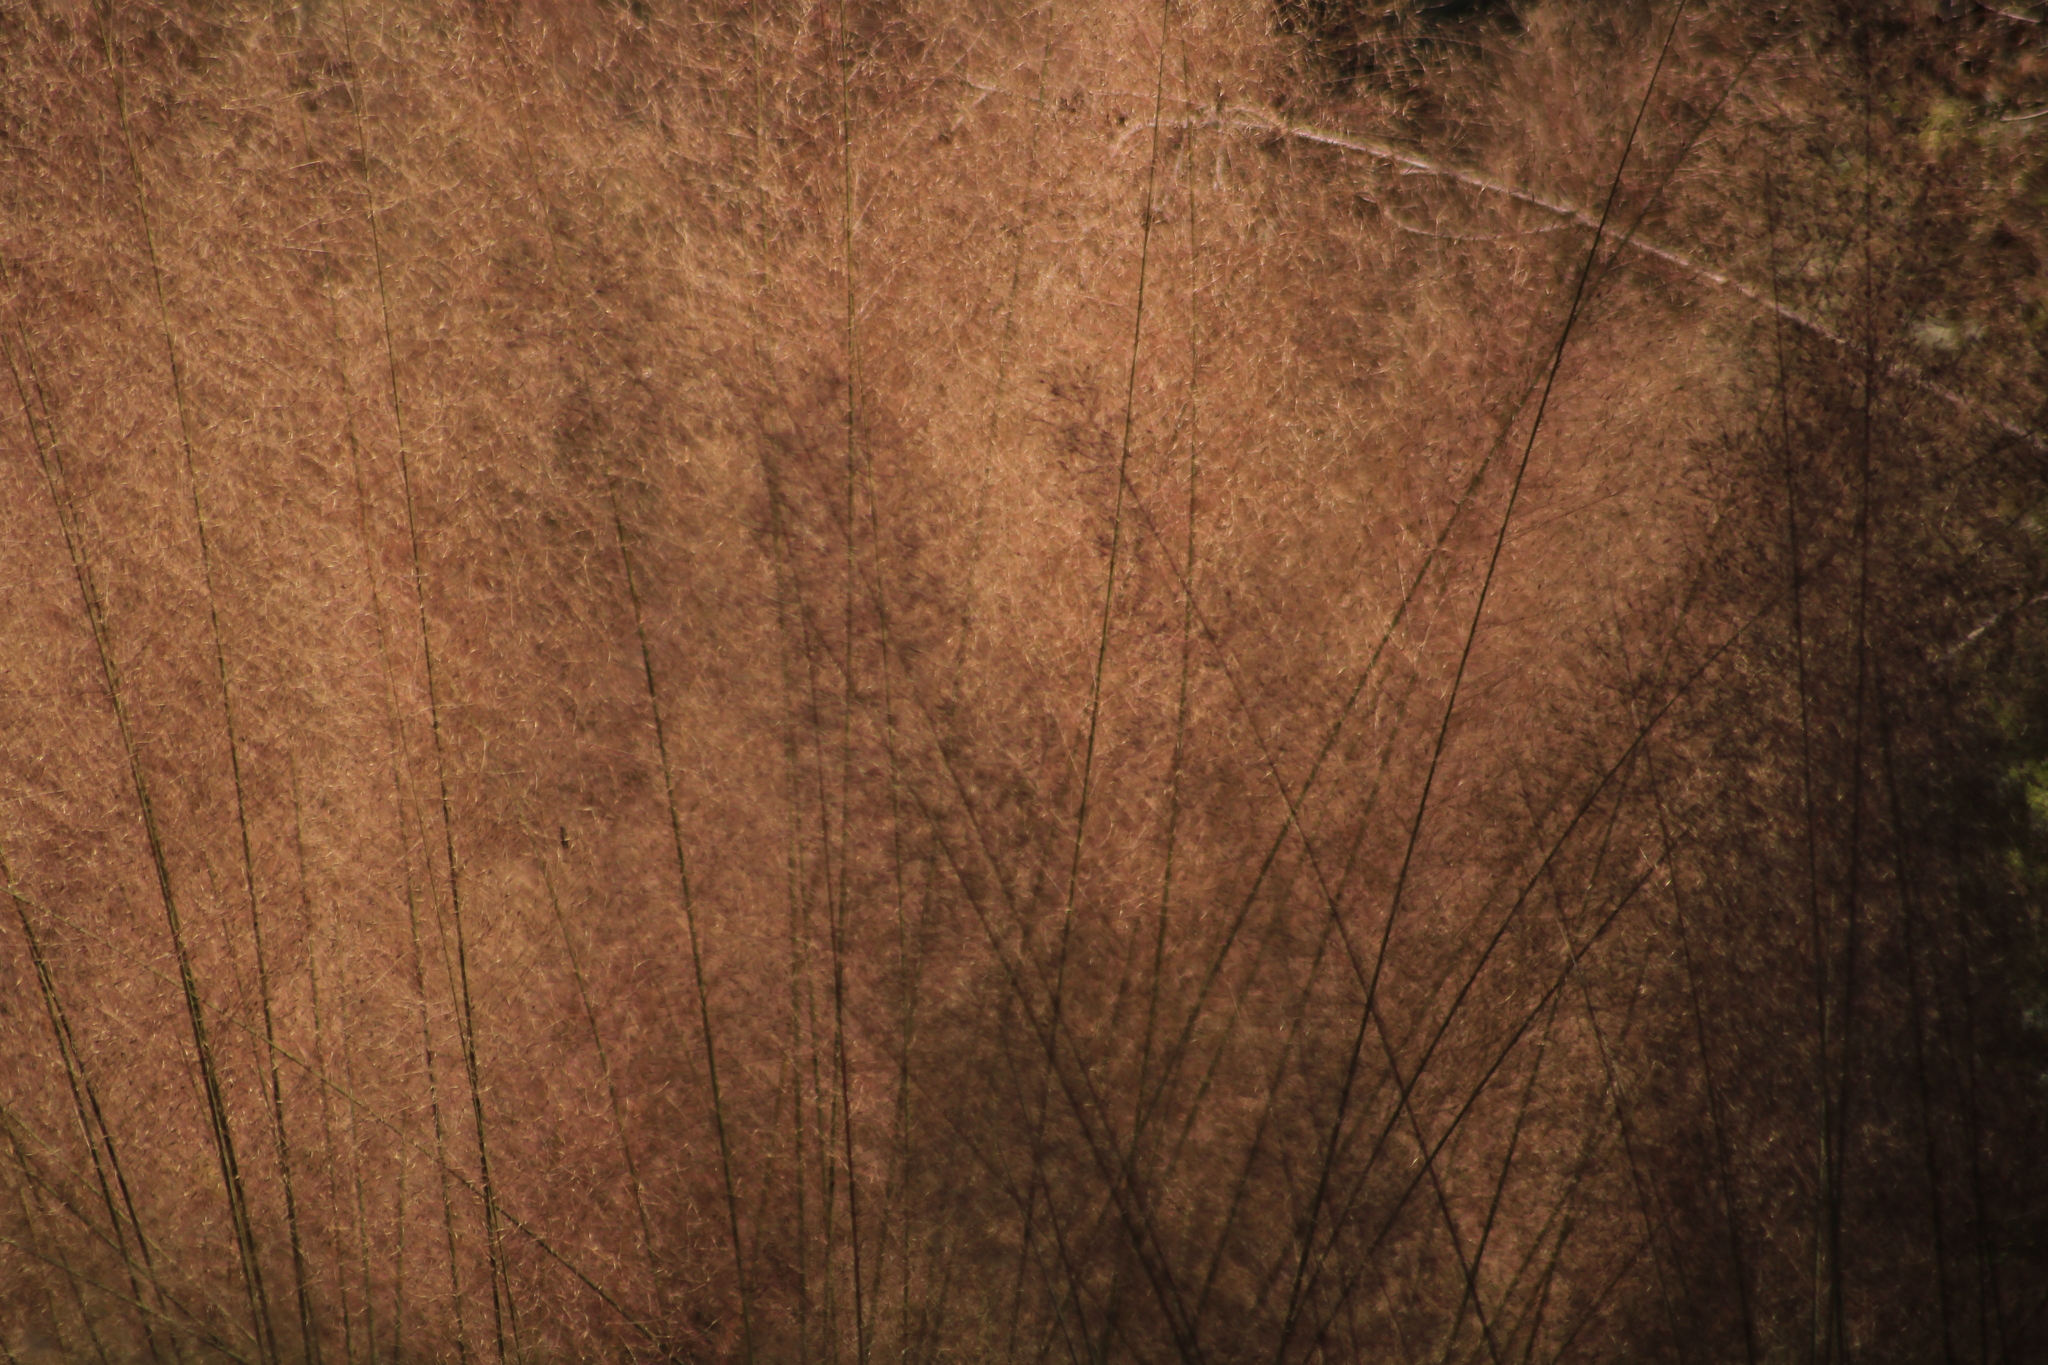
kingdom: Plantae
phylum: Tracheophyta
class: Liliopsida
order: Poales
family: Poaceae
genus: Muhlenbergia
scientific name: Muhlenbergia stricta
